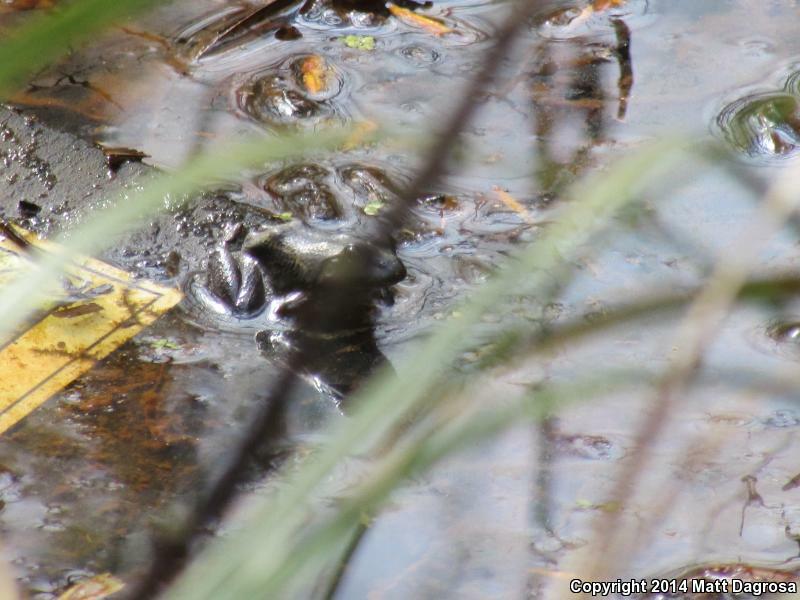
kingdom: Animalia
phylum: Chordata
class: Amphibia
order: Anura
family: Ranidae
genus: Lithobates
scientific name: Lithobates catesbeianus
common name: American bullfrog
